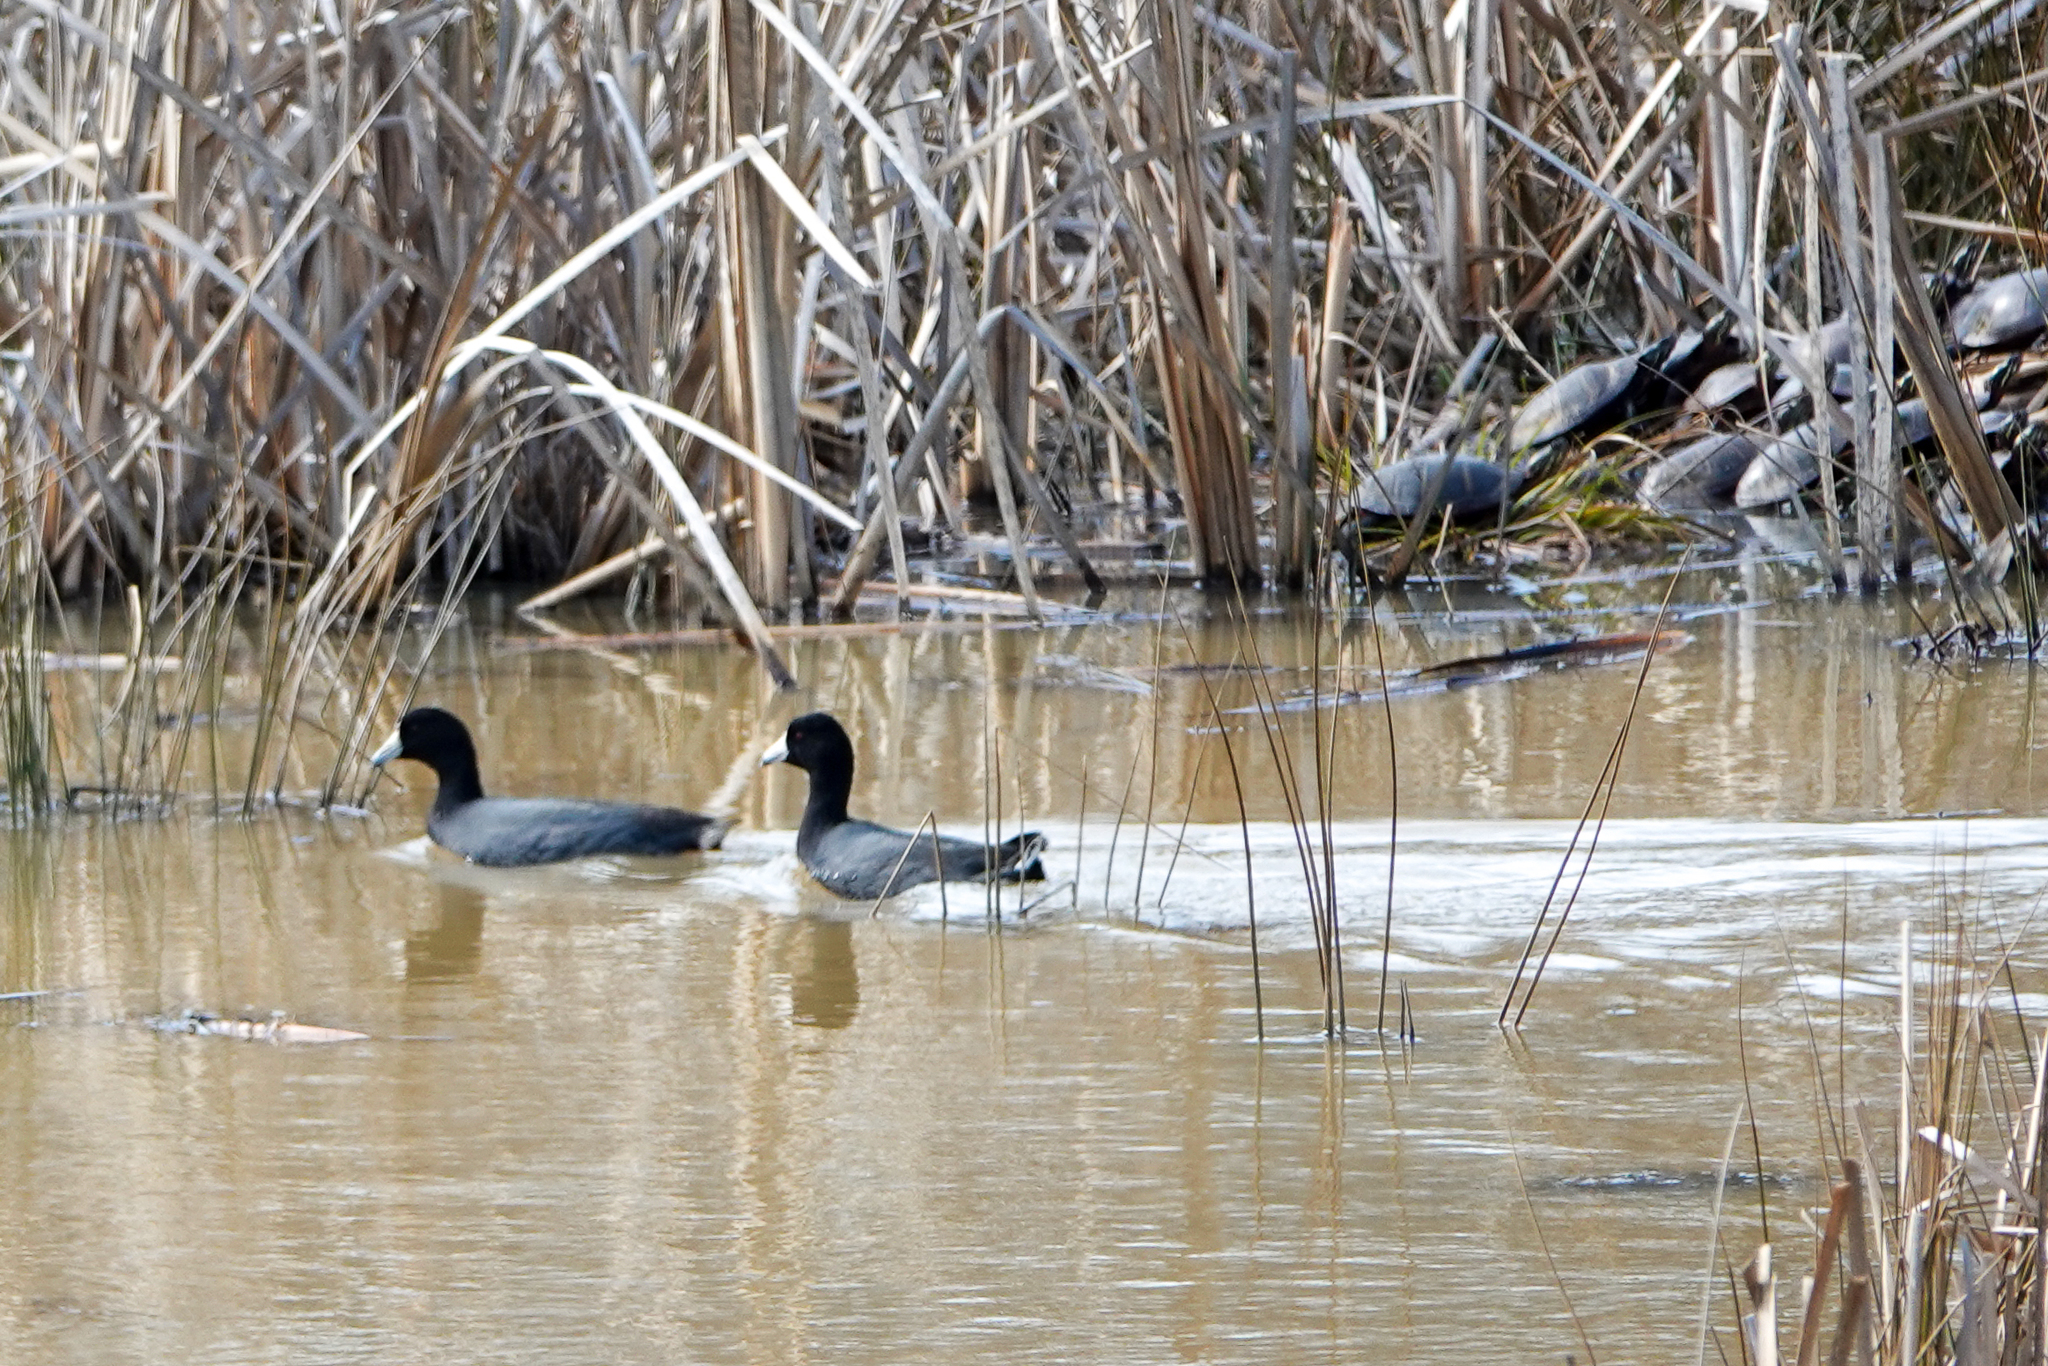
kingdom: Animalia
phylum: Chordata
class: Aves
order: Gruiformes
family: Rallidae
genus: Fulica
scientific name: Fulica americana
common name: American coot
